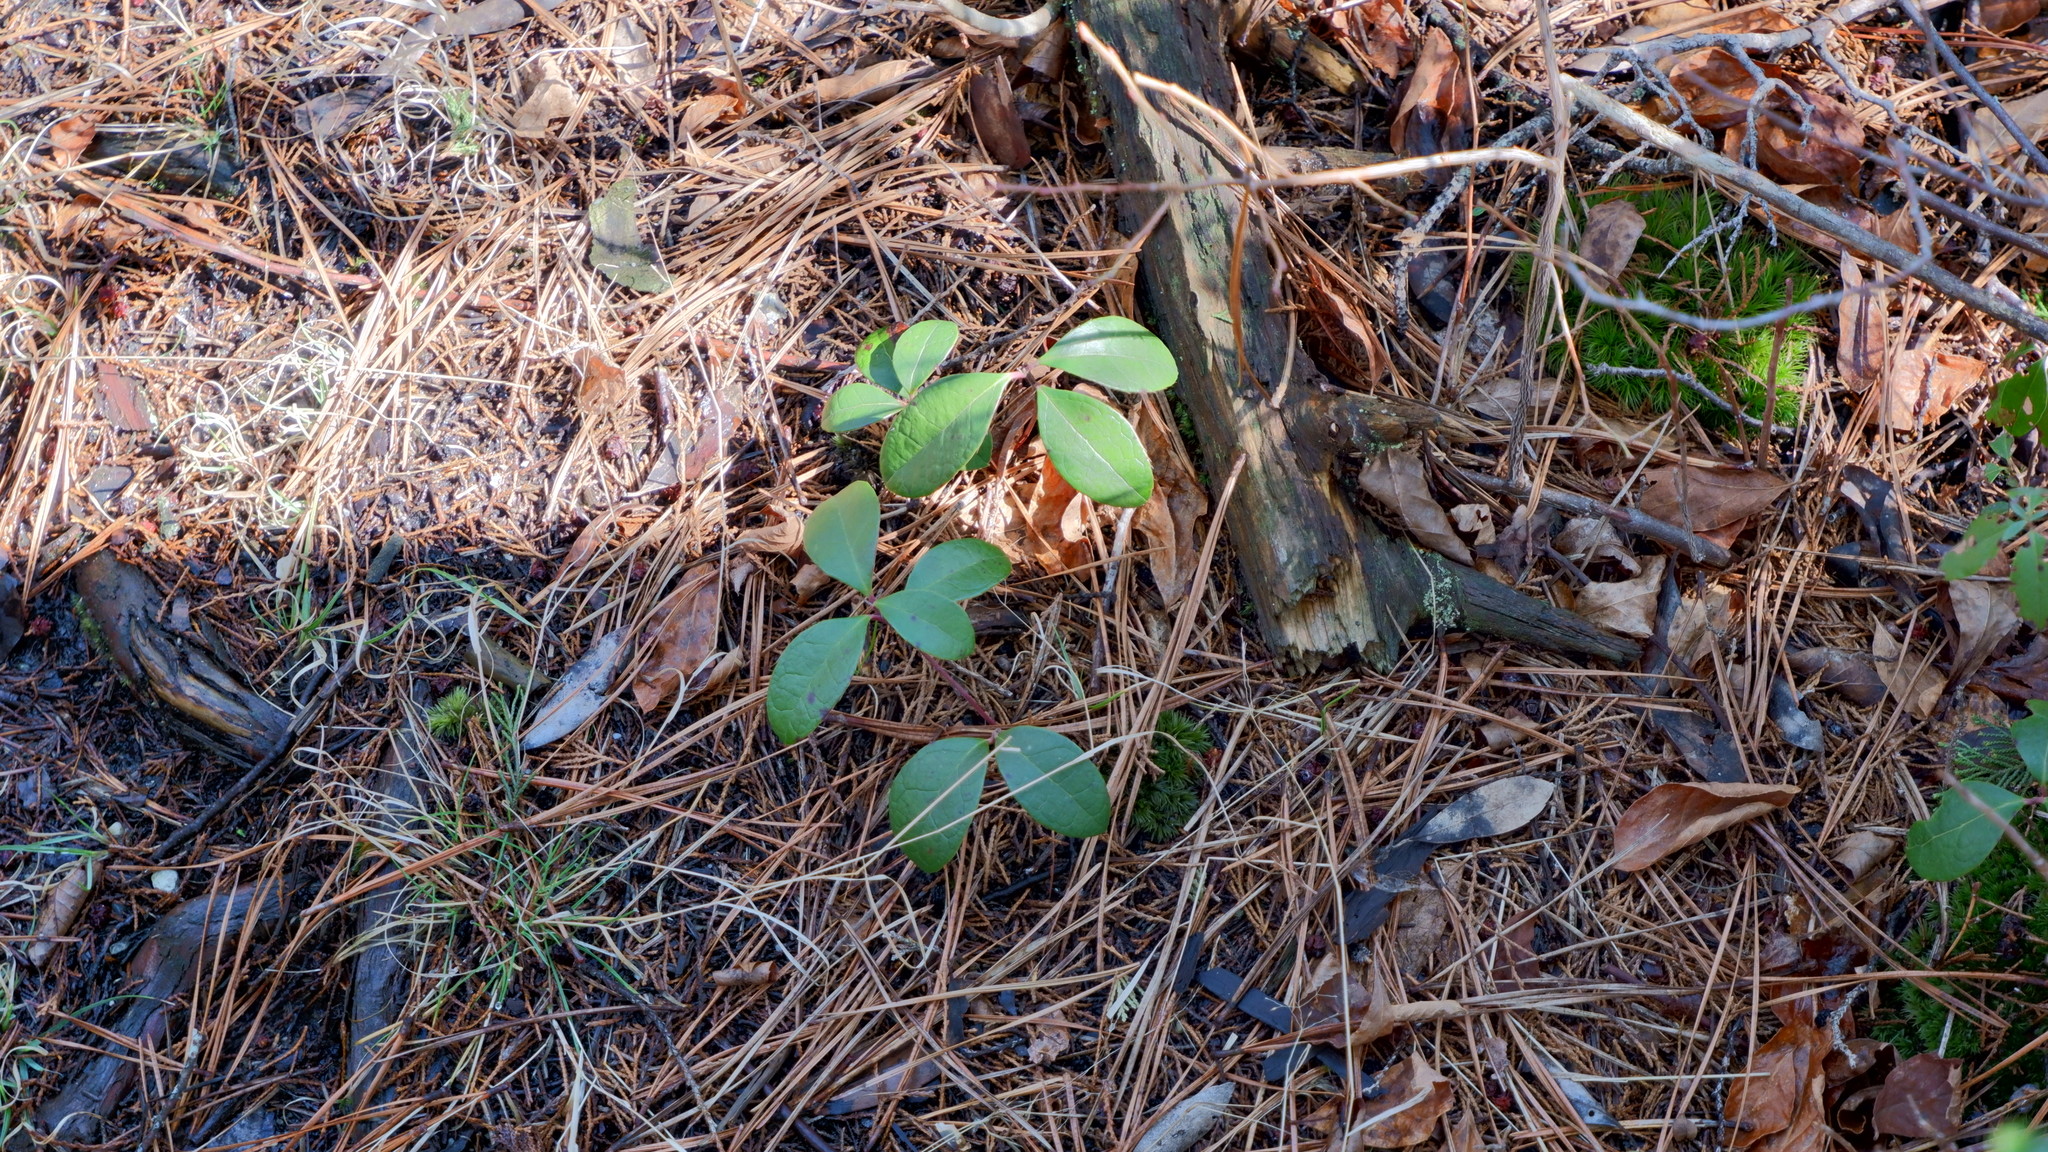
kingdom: Plantae
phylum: Tracheophyta
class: Magnoliopsida
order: Ericales
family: Ericaceae
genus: Gaultheria
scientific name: Gaultheria procumbens
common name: Checkerberry
